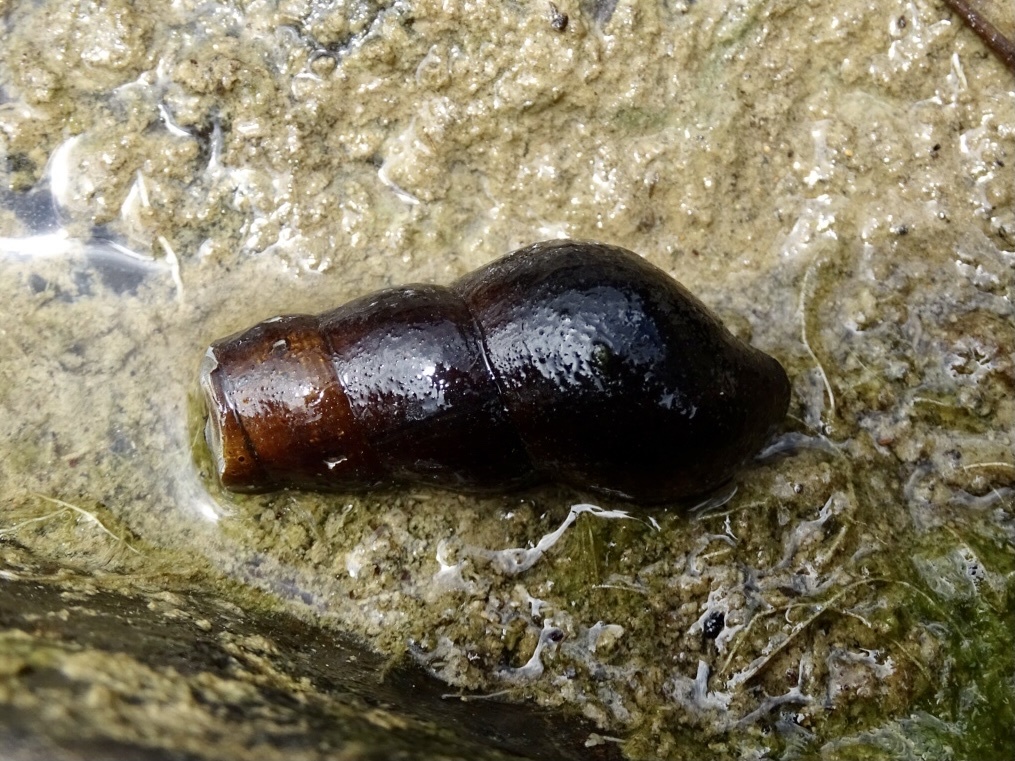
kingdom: Animalia
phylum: Mollusca
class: Gastropoda
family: Pachychilidae
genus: Sulcospira
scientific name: Sulcospira hainanensis
